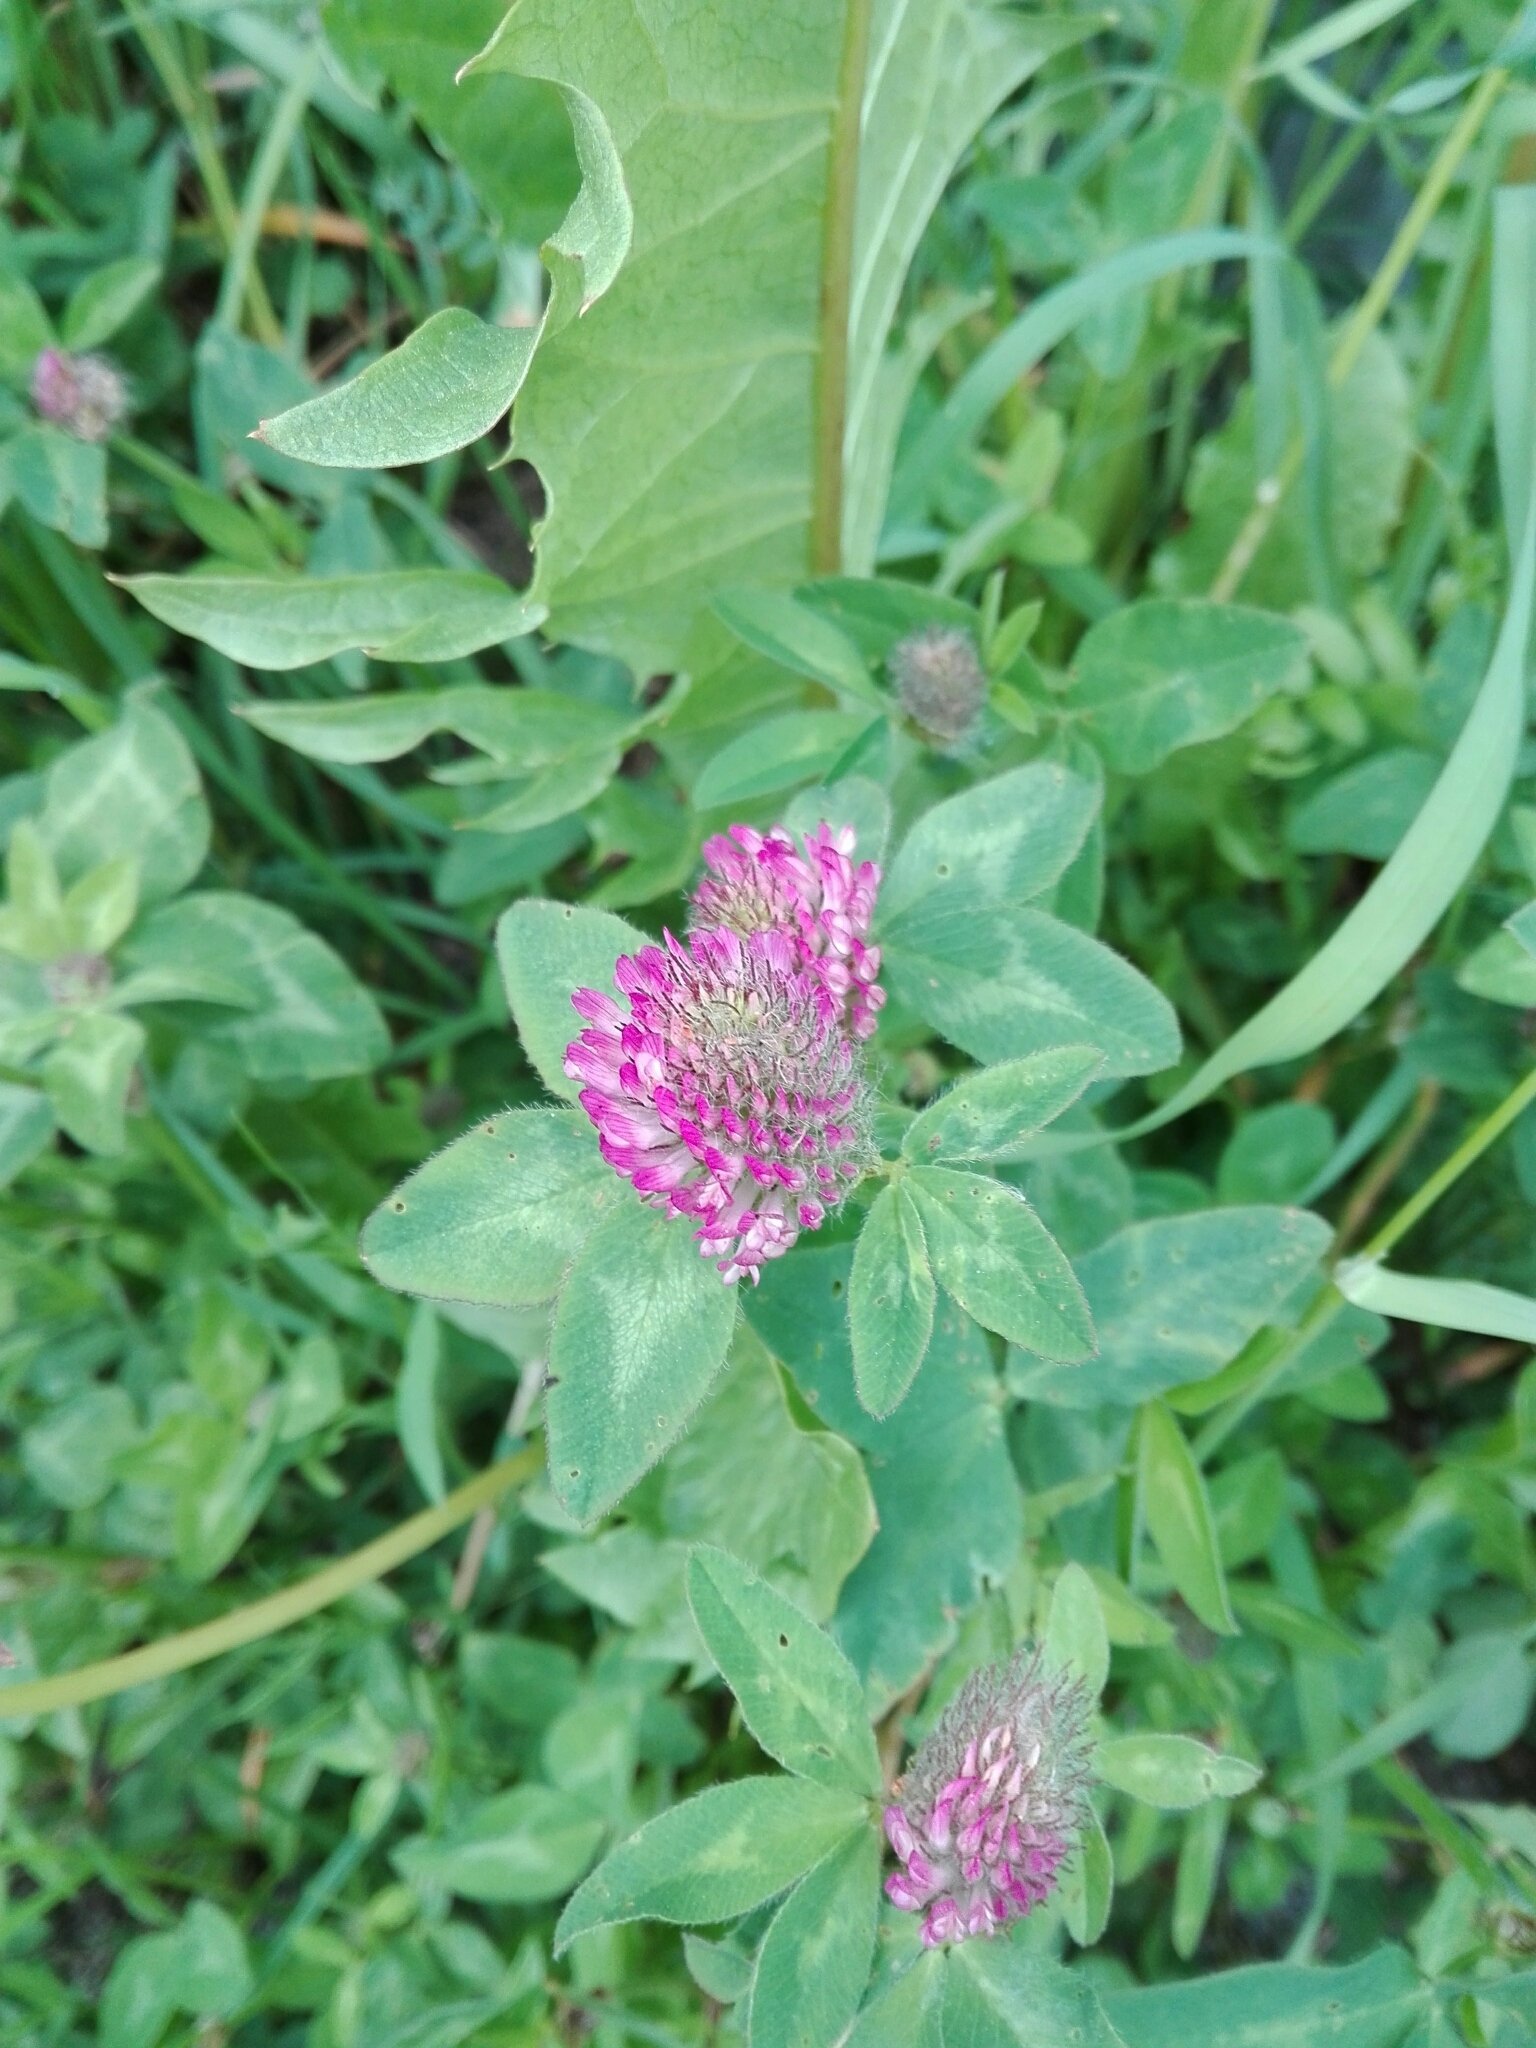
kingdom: Plantae
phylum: Tracheophyta
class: Magnoliopsida
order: Fabales
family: Fabaceae
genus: Trifolium
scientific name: Trifolium pratense
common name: Red clover
